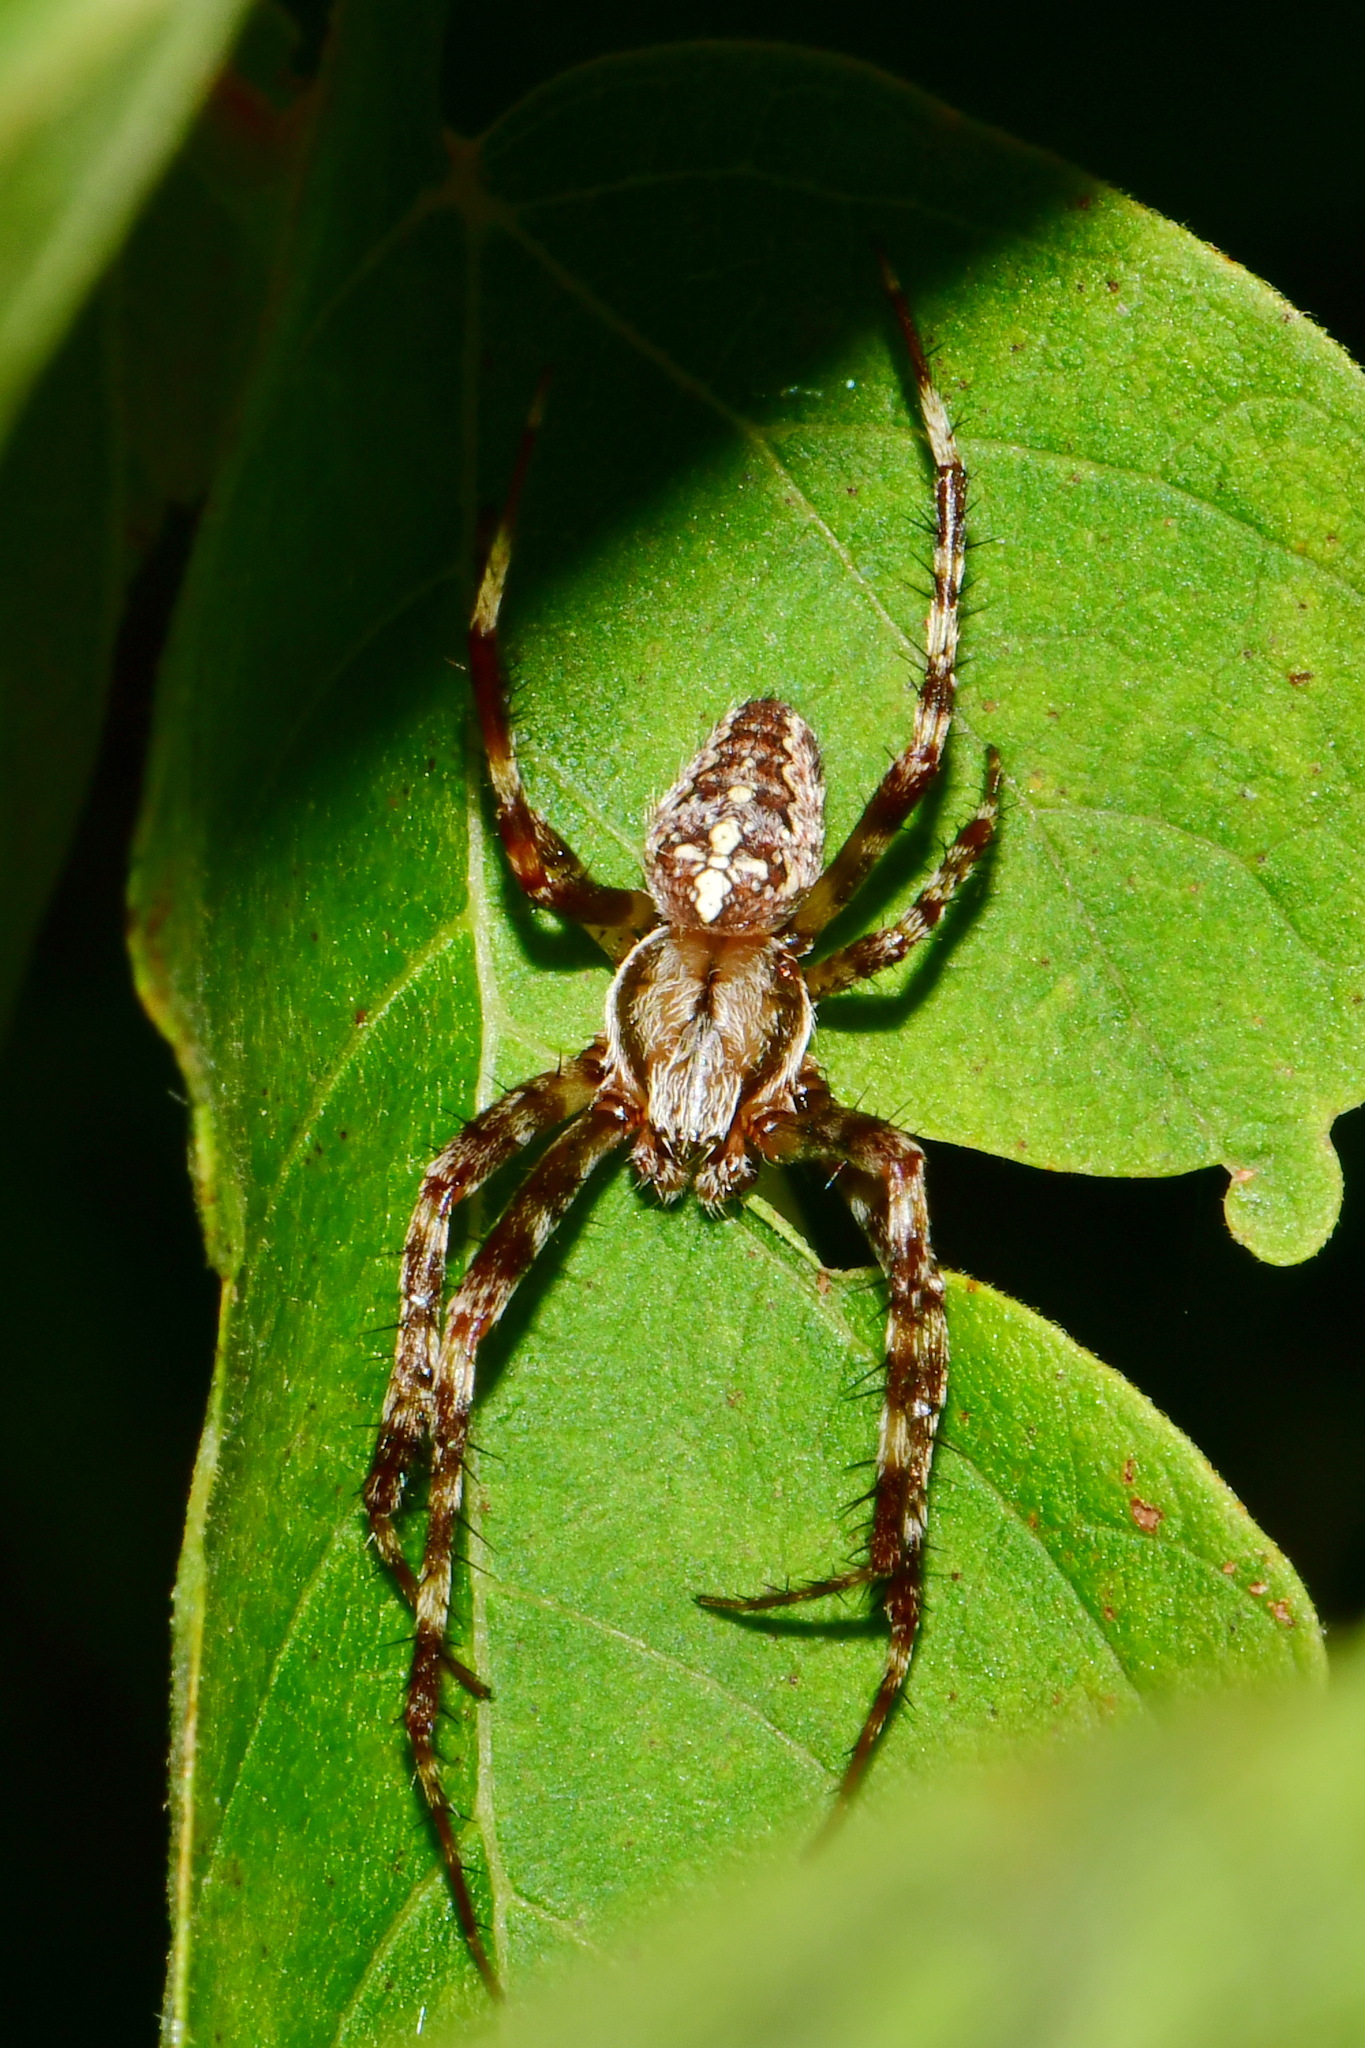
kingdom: Animalia
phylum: Arthropoda
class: Arachnida
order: Araneae
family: Araneidae
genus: Araneus
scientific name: Araneus diadematus
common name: Cross orbweaver
